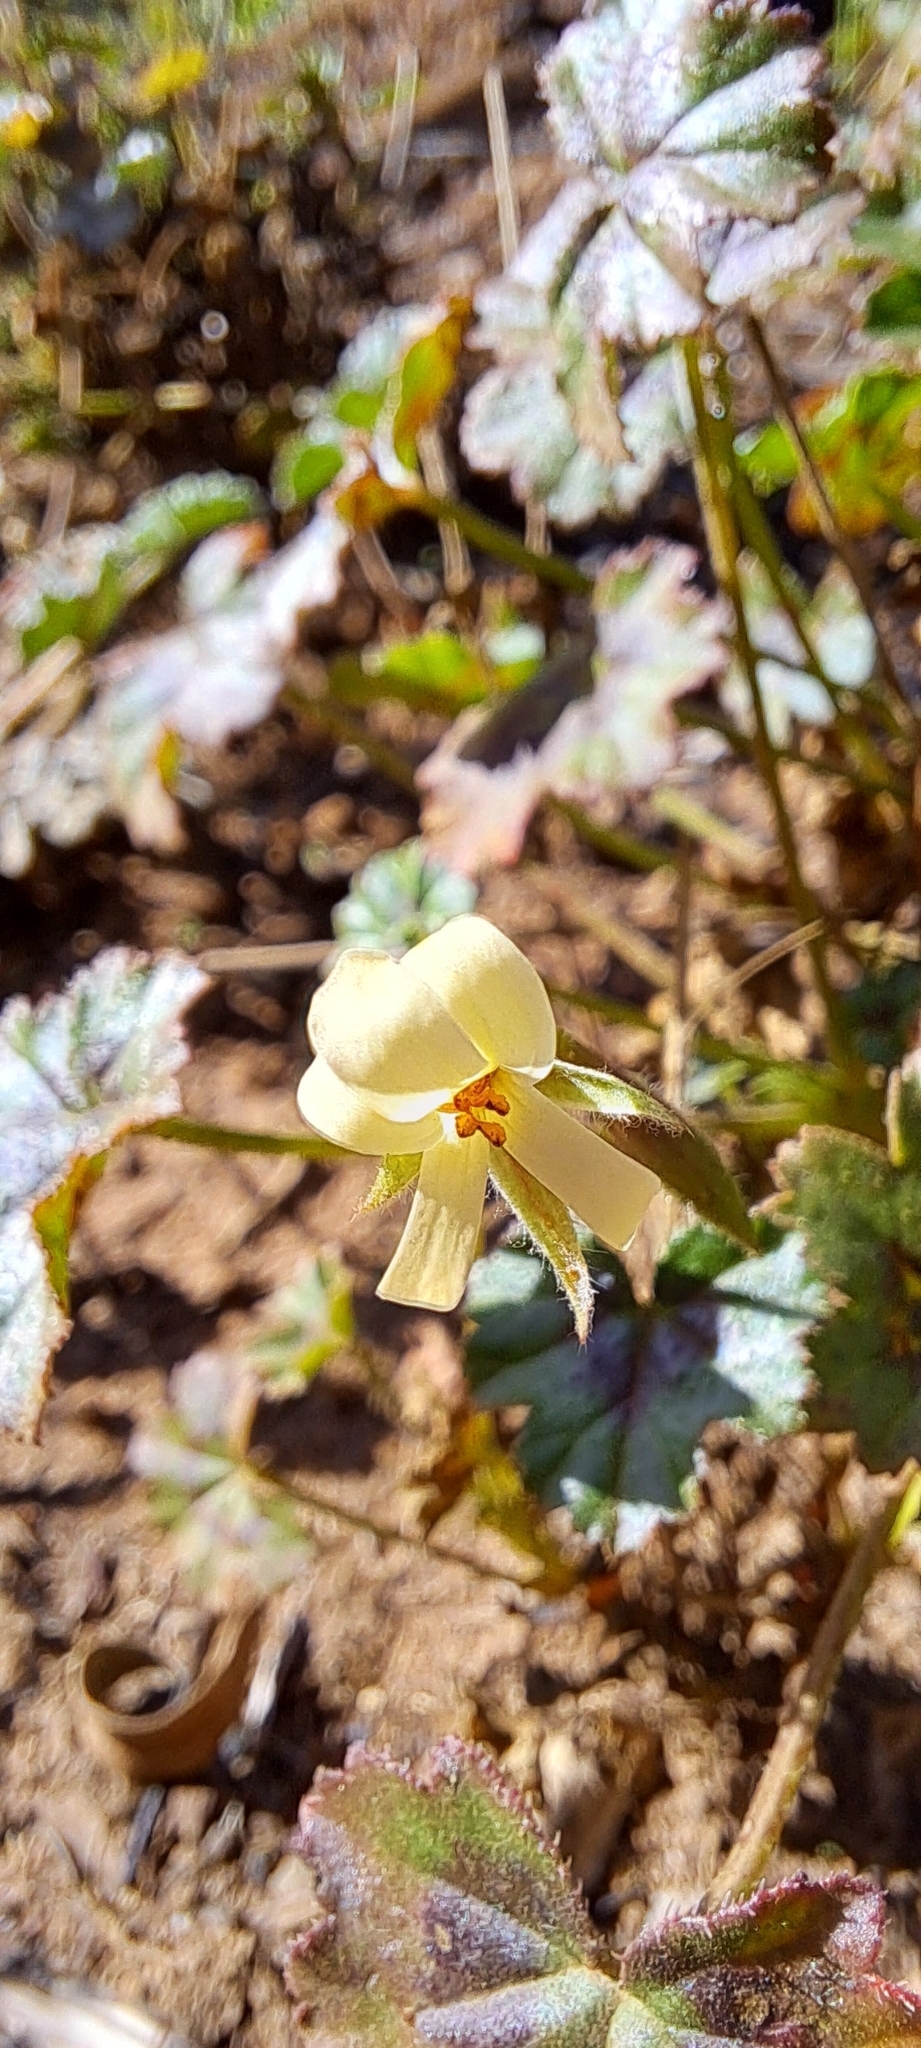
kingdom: Plantae
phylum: Tracheophyta
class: Magnoliopsida
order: Geraniales
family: Geraniaceae
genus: Pelargonium
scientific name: Pelargonium elongatum
